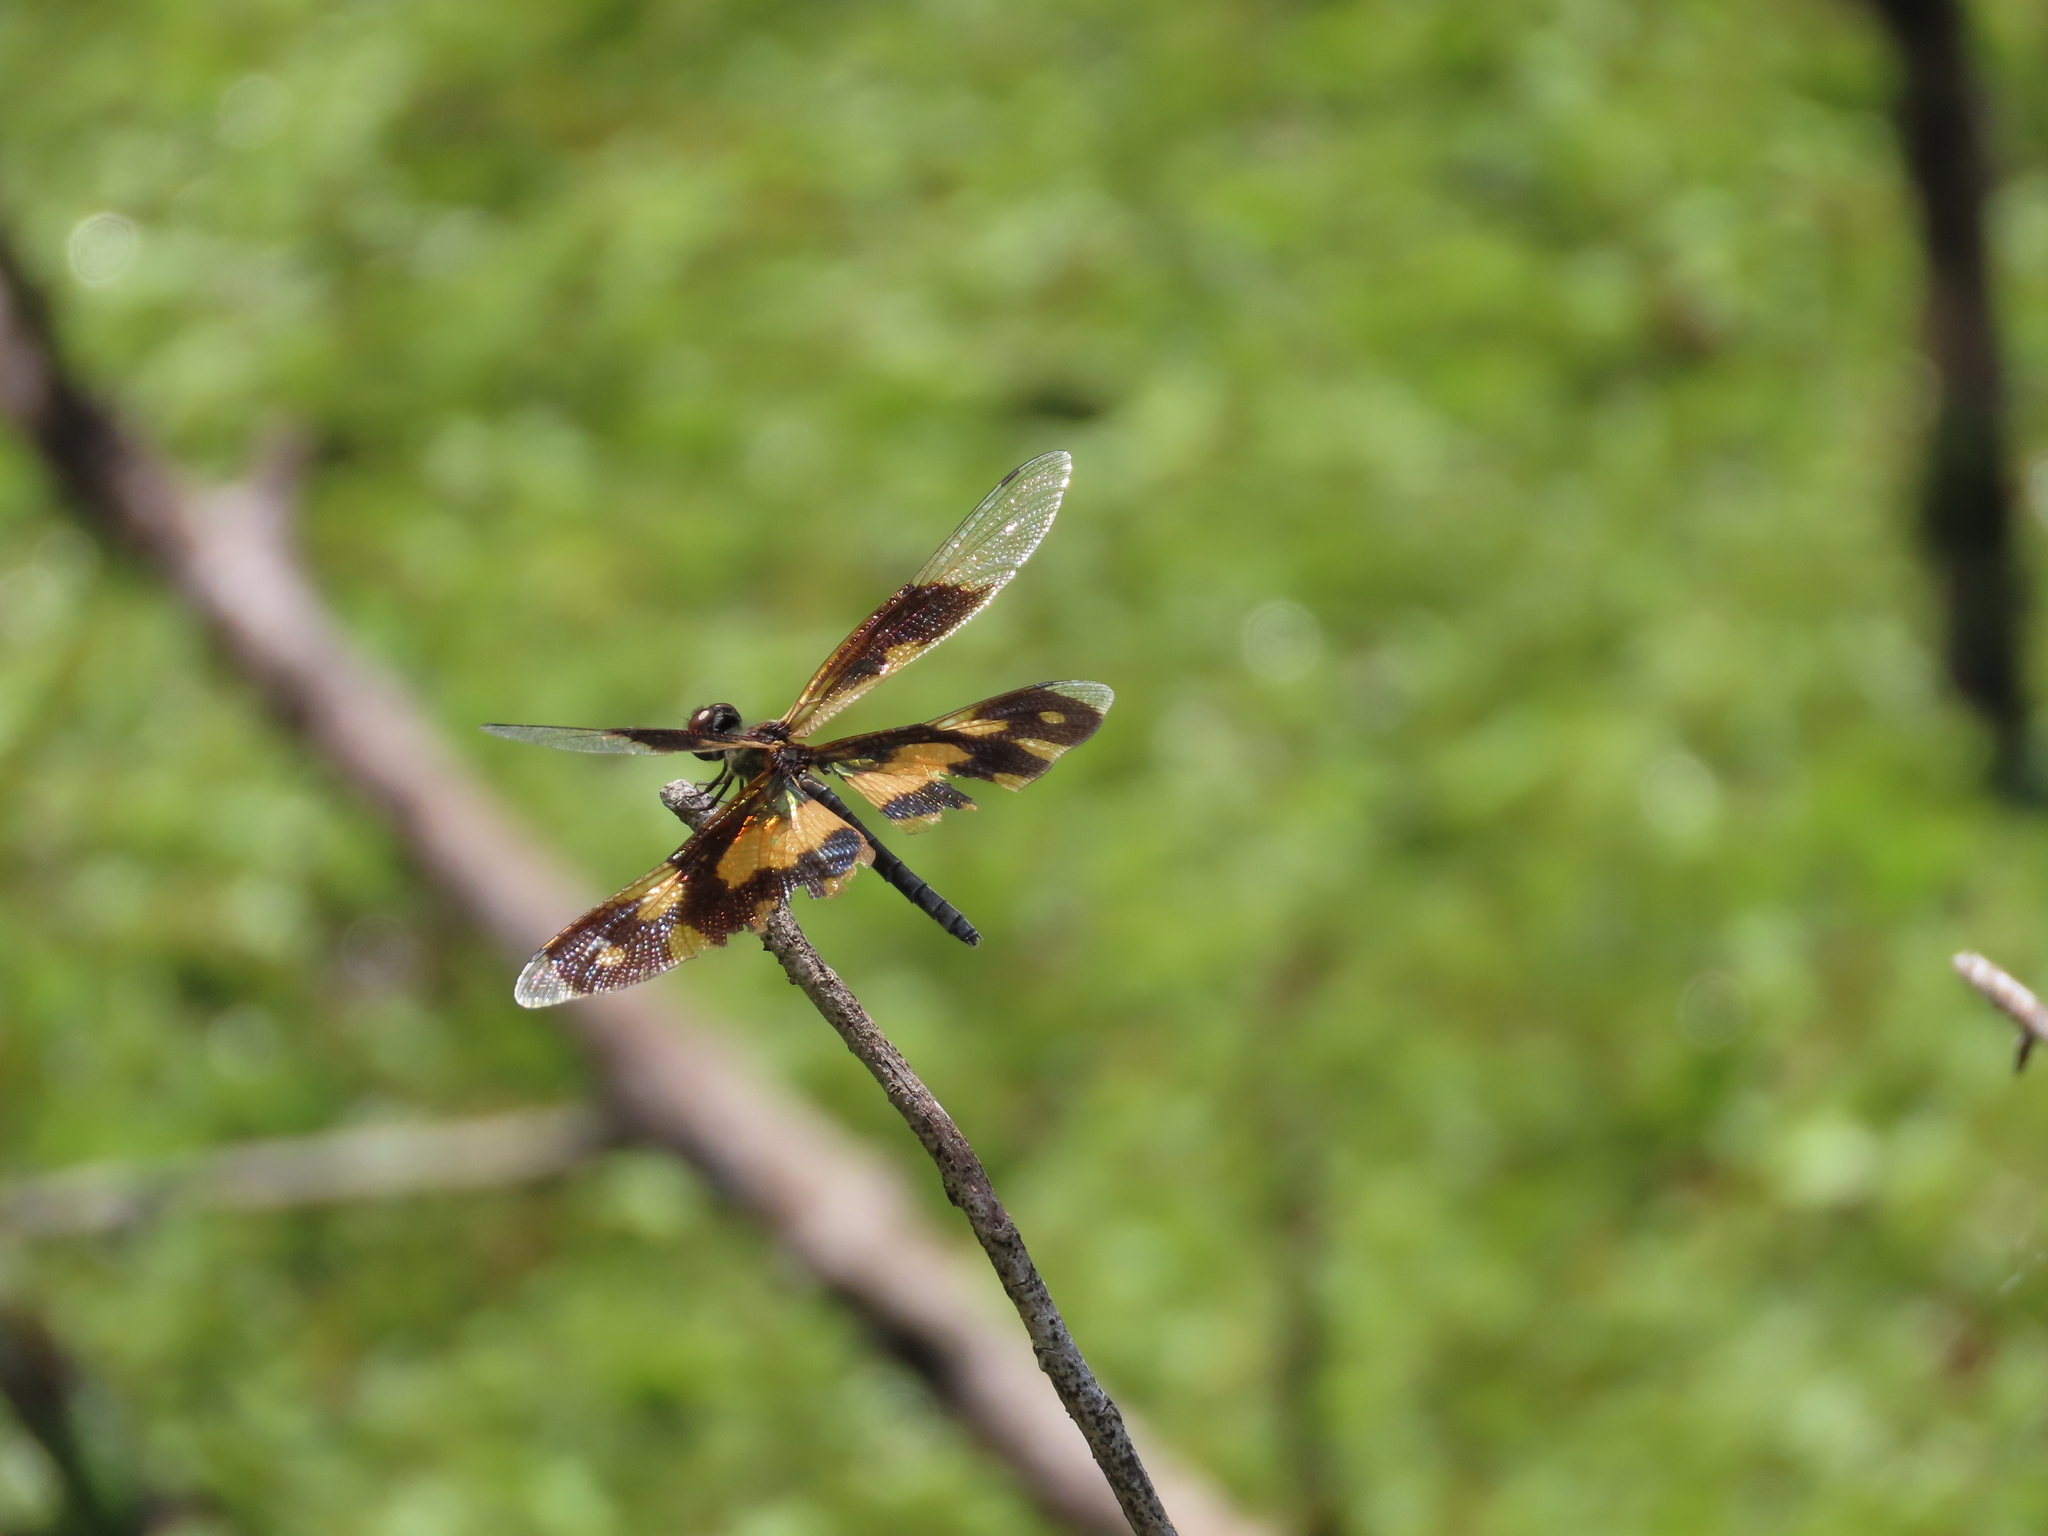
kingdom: Animalia
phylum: Arthropoda
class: Insecta
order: Odonata
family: Libellulidae
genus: Rhyothemis
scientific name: Rhyothemis variegata
